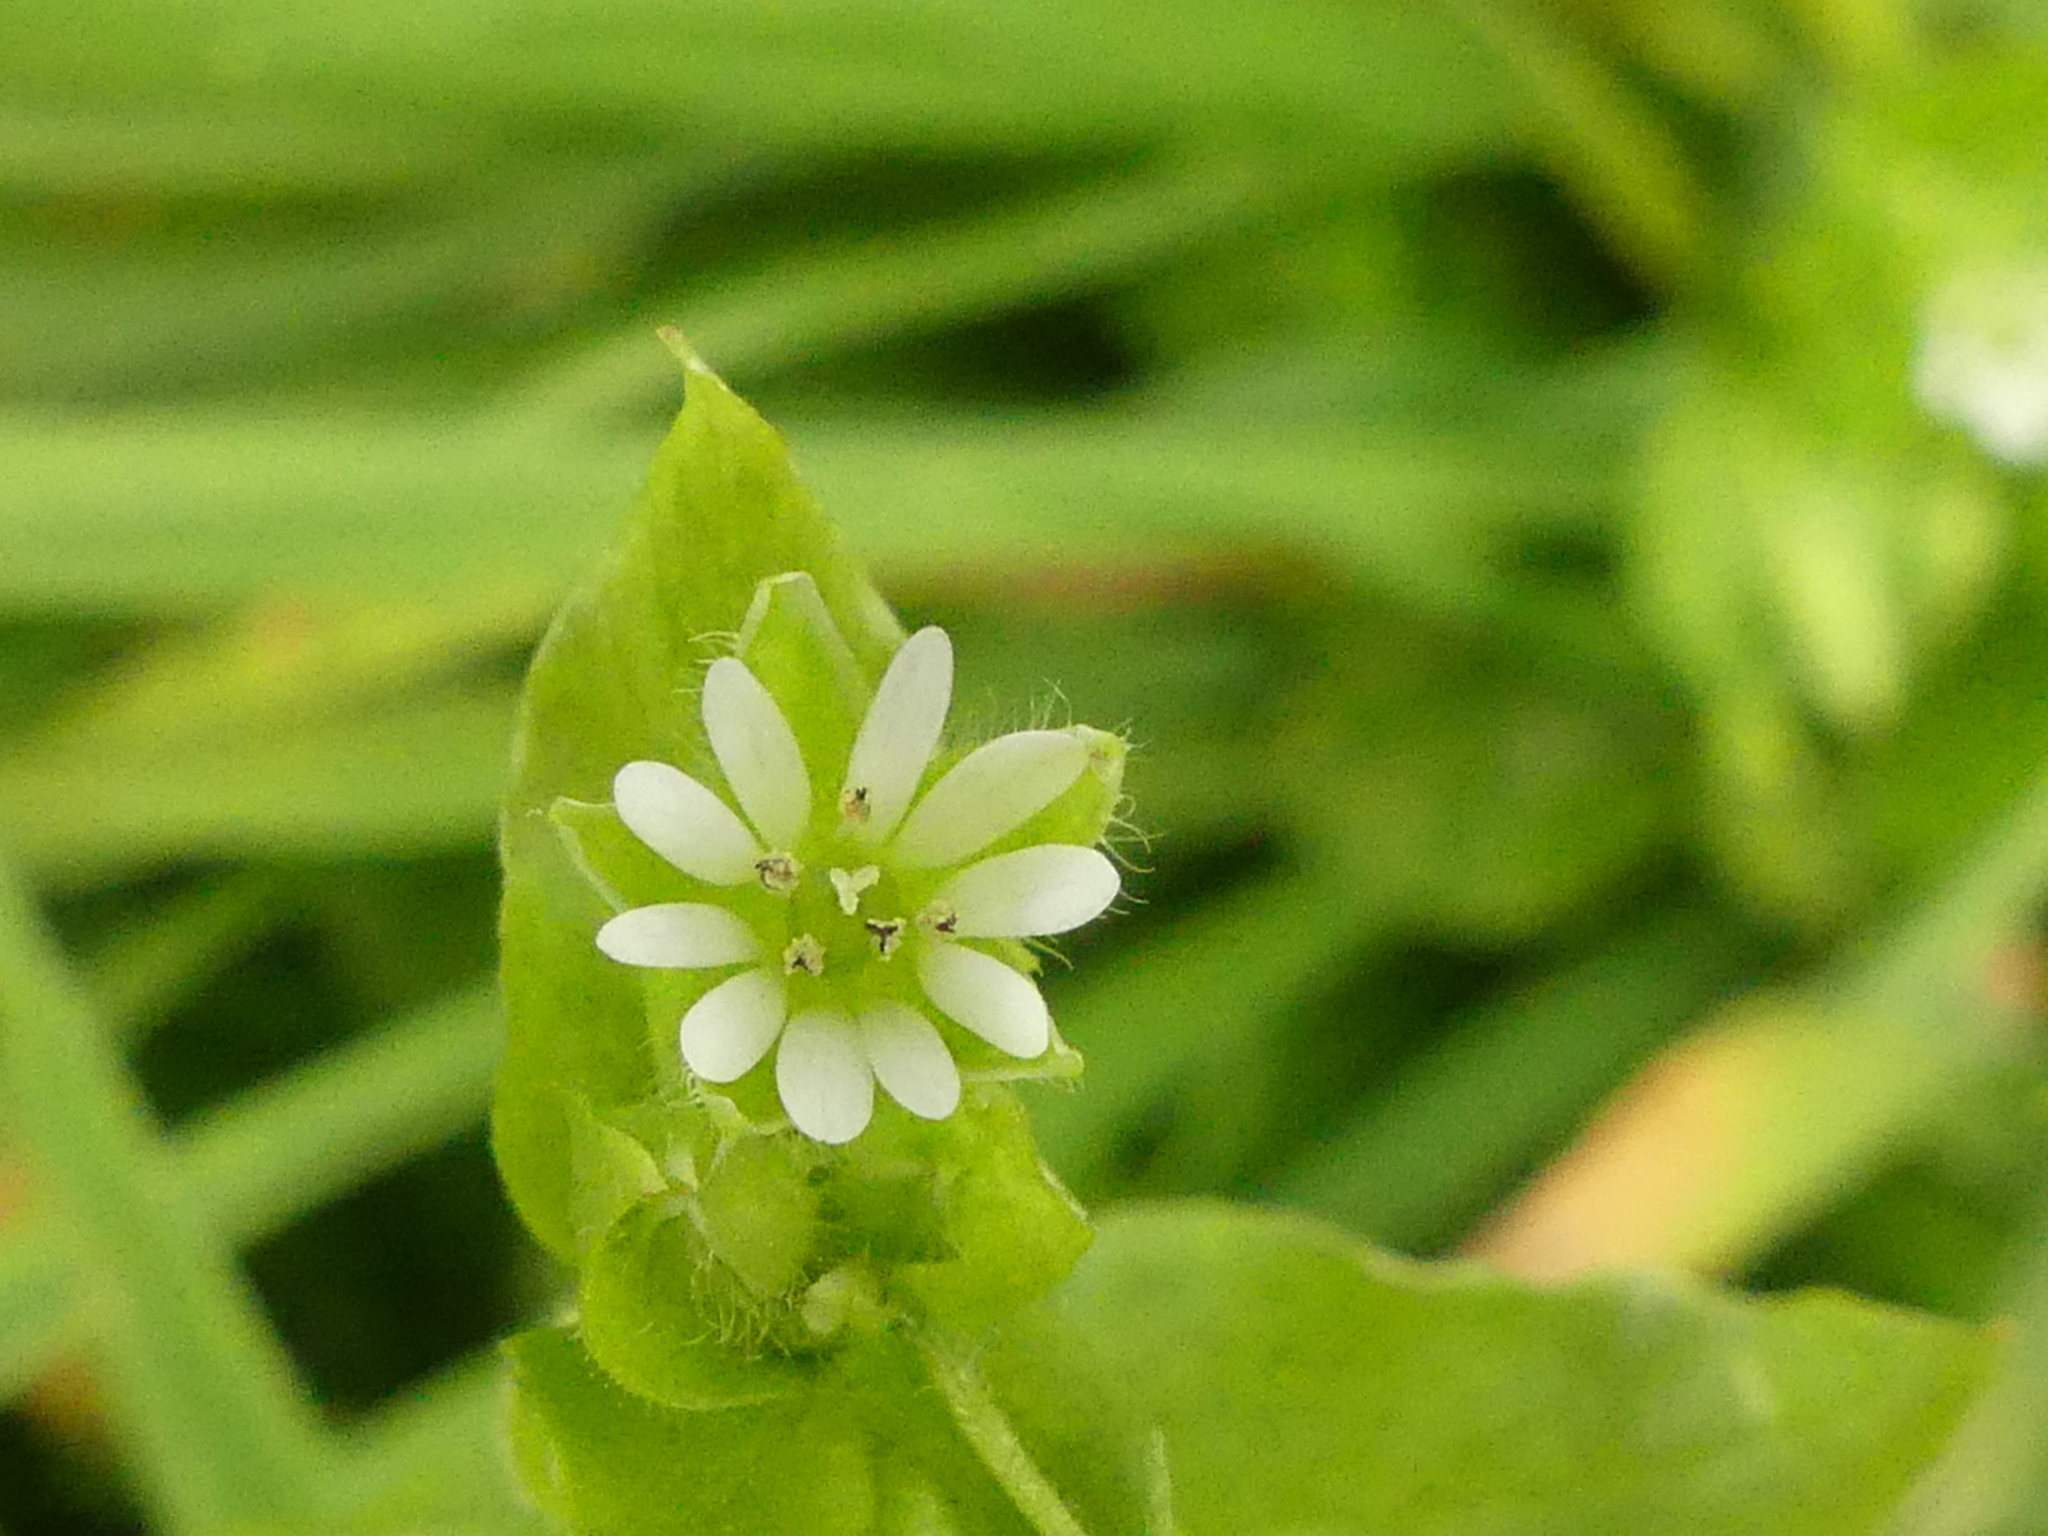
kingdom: Plantae
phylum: Tracheophyta
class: Magnoliopsida
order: Caryophyllales
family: Caryophyllaceae
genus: Stellaria
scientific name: Stellaria media
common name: Common chickweed
